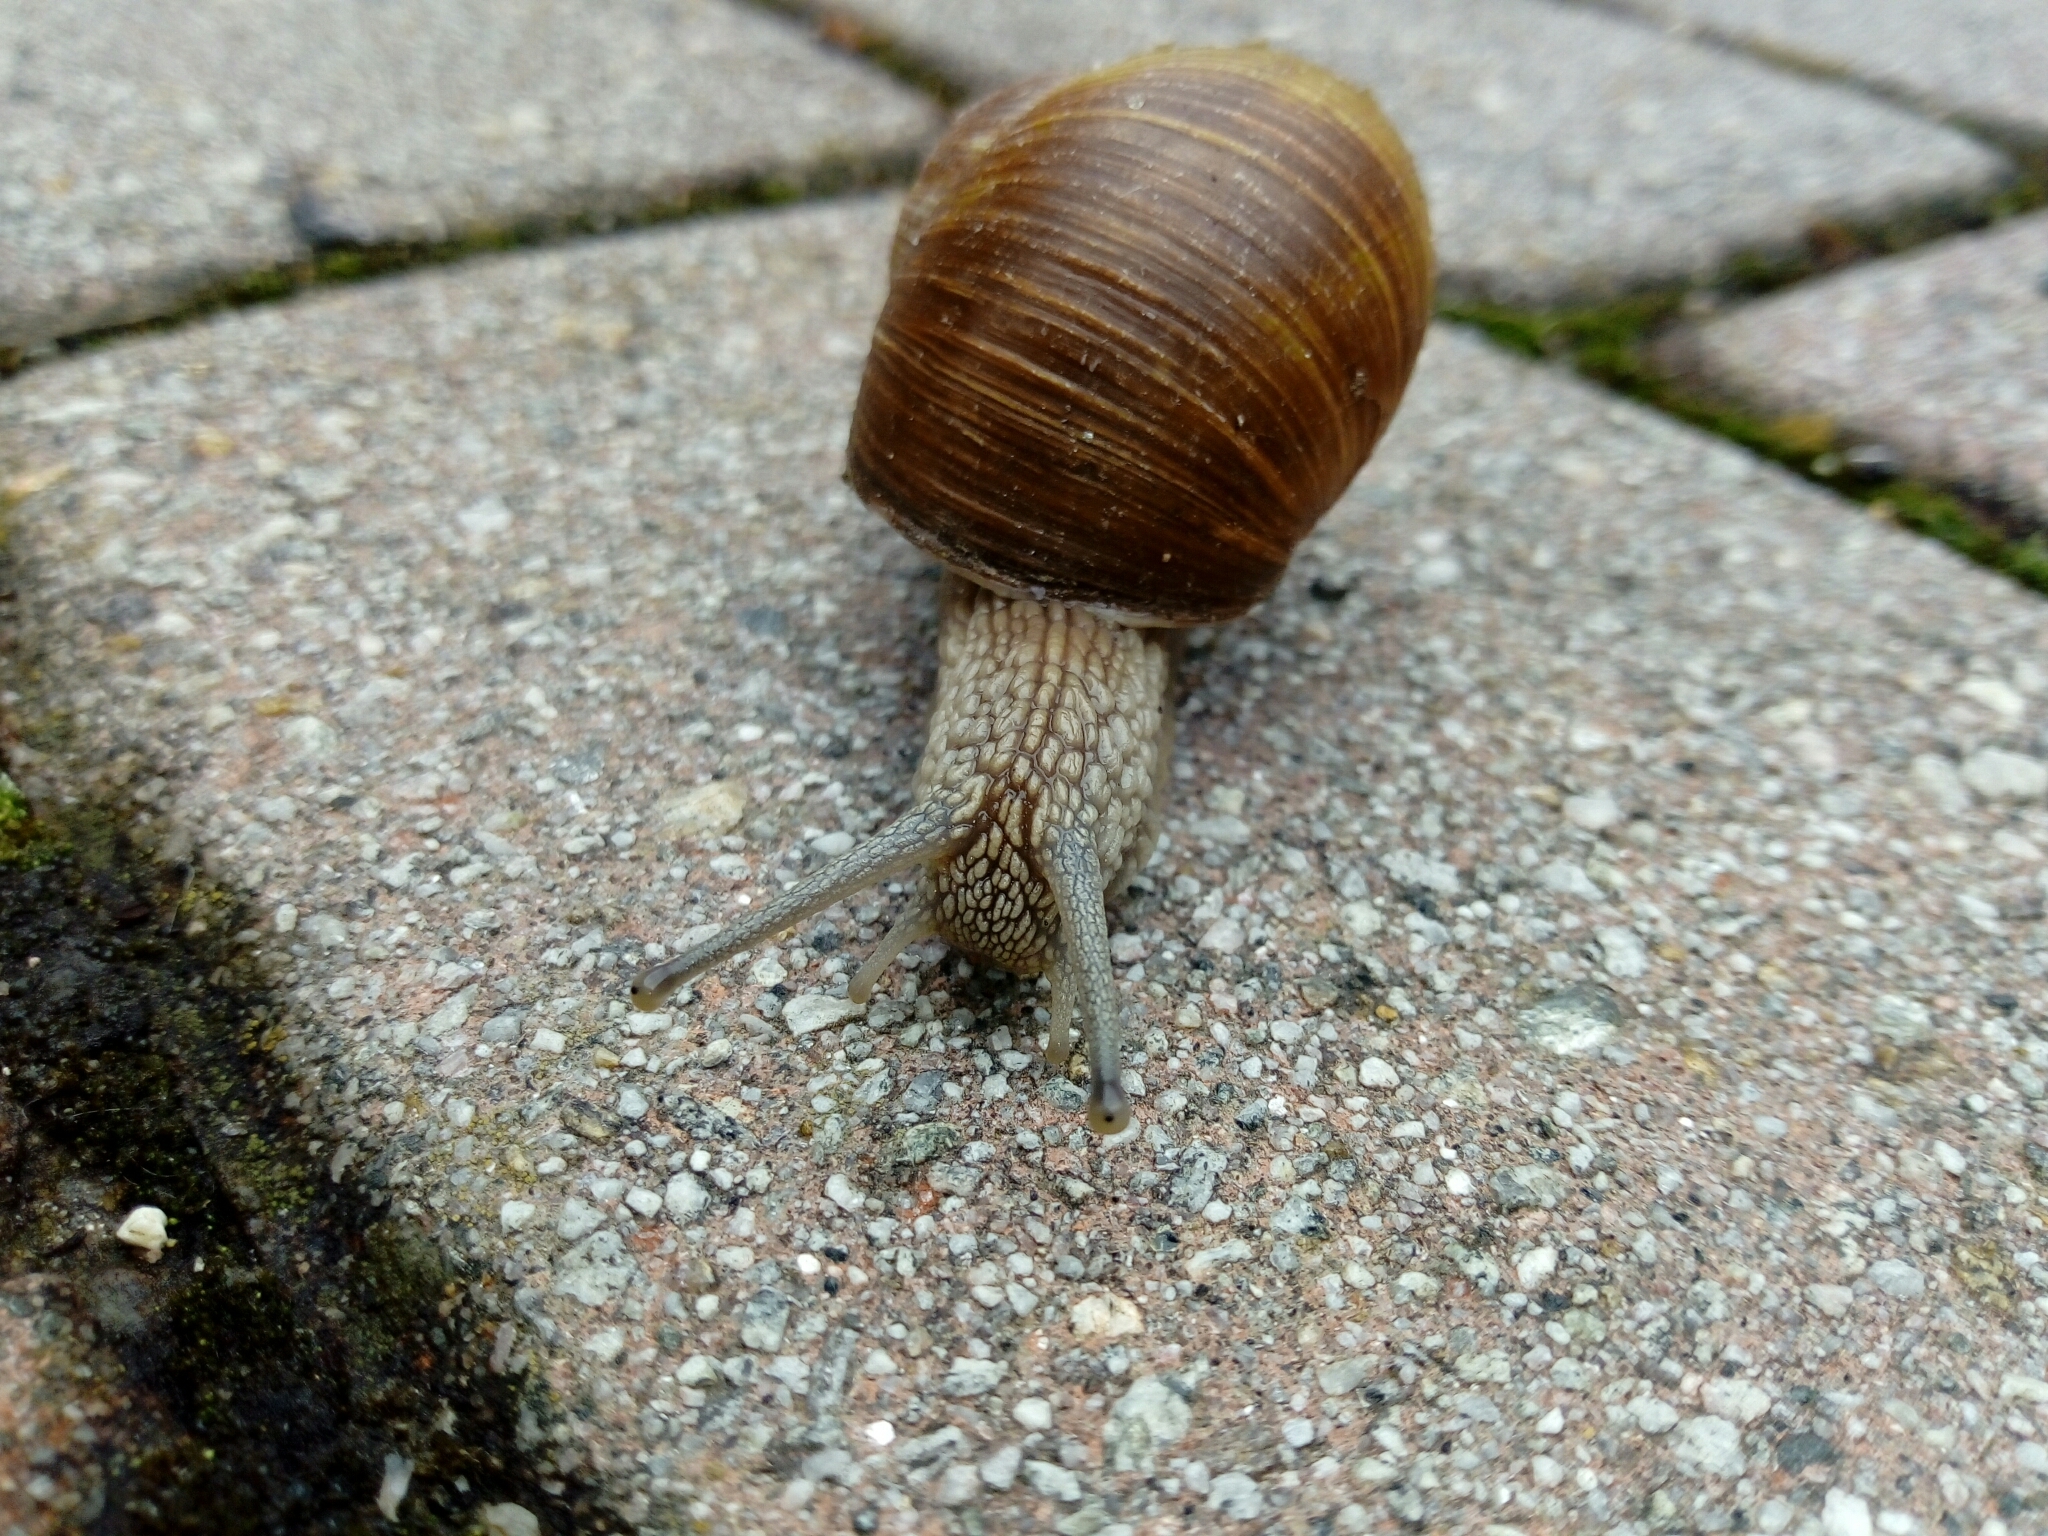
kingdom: Animalia
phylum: Mollusca
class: Gastropoda
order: Stylommatophora
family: Helicidae
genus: Helix
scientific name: Helix pomatia
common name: Roman snail
